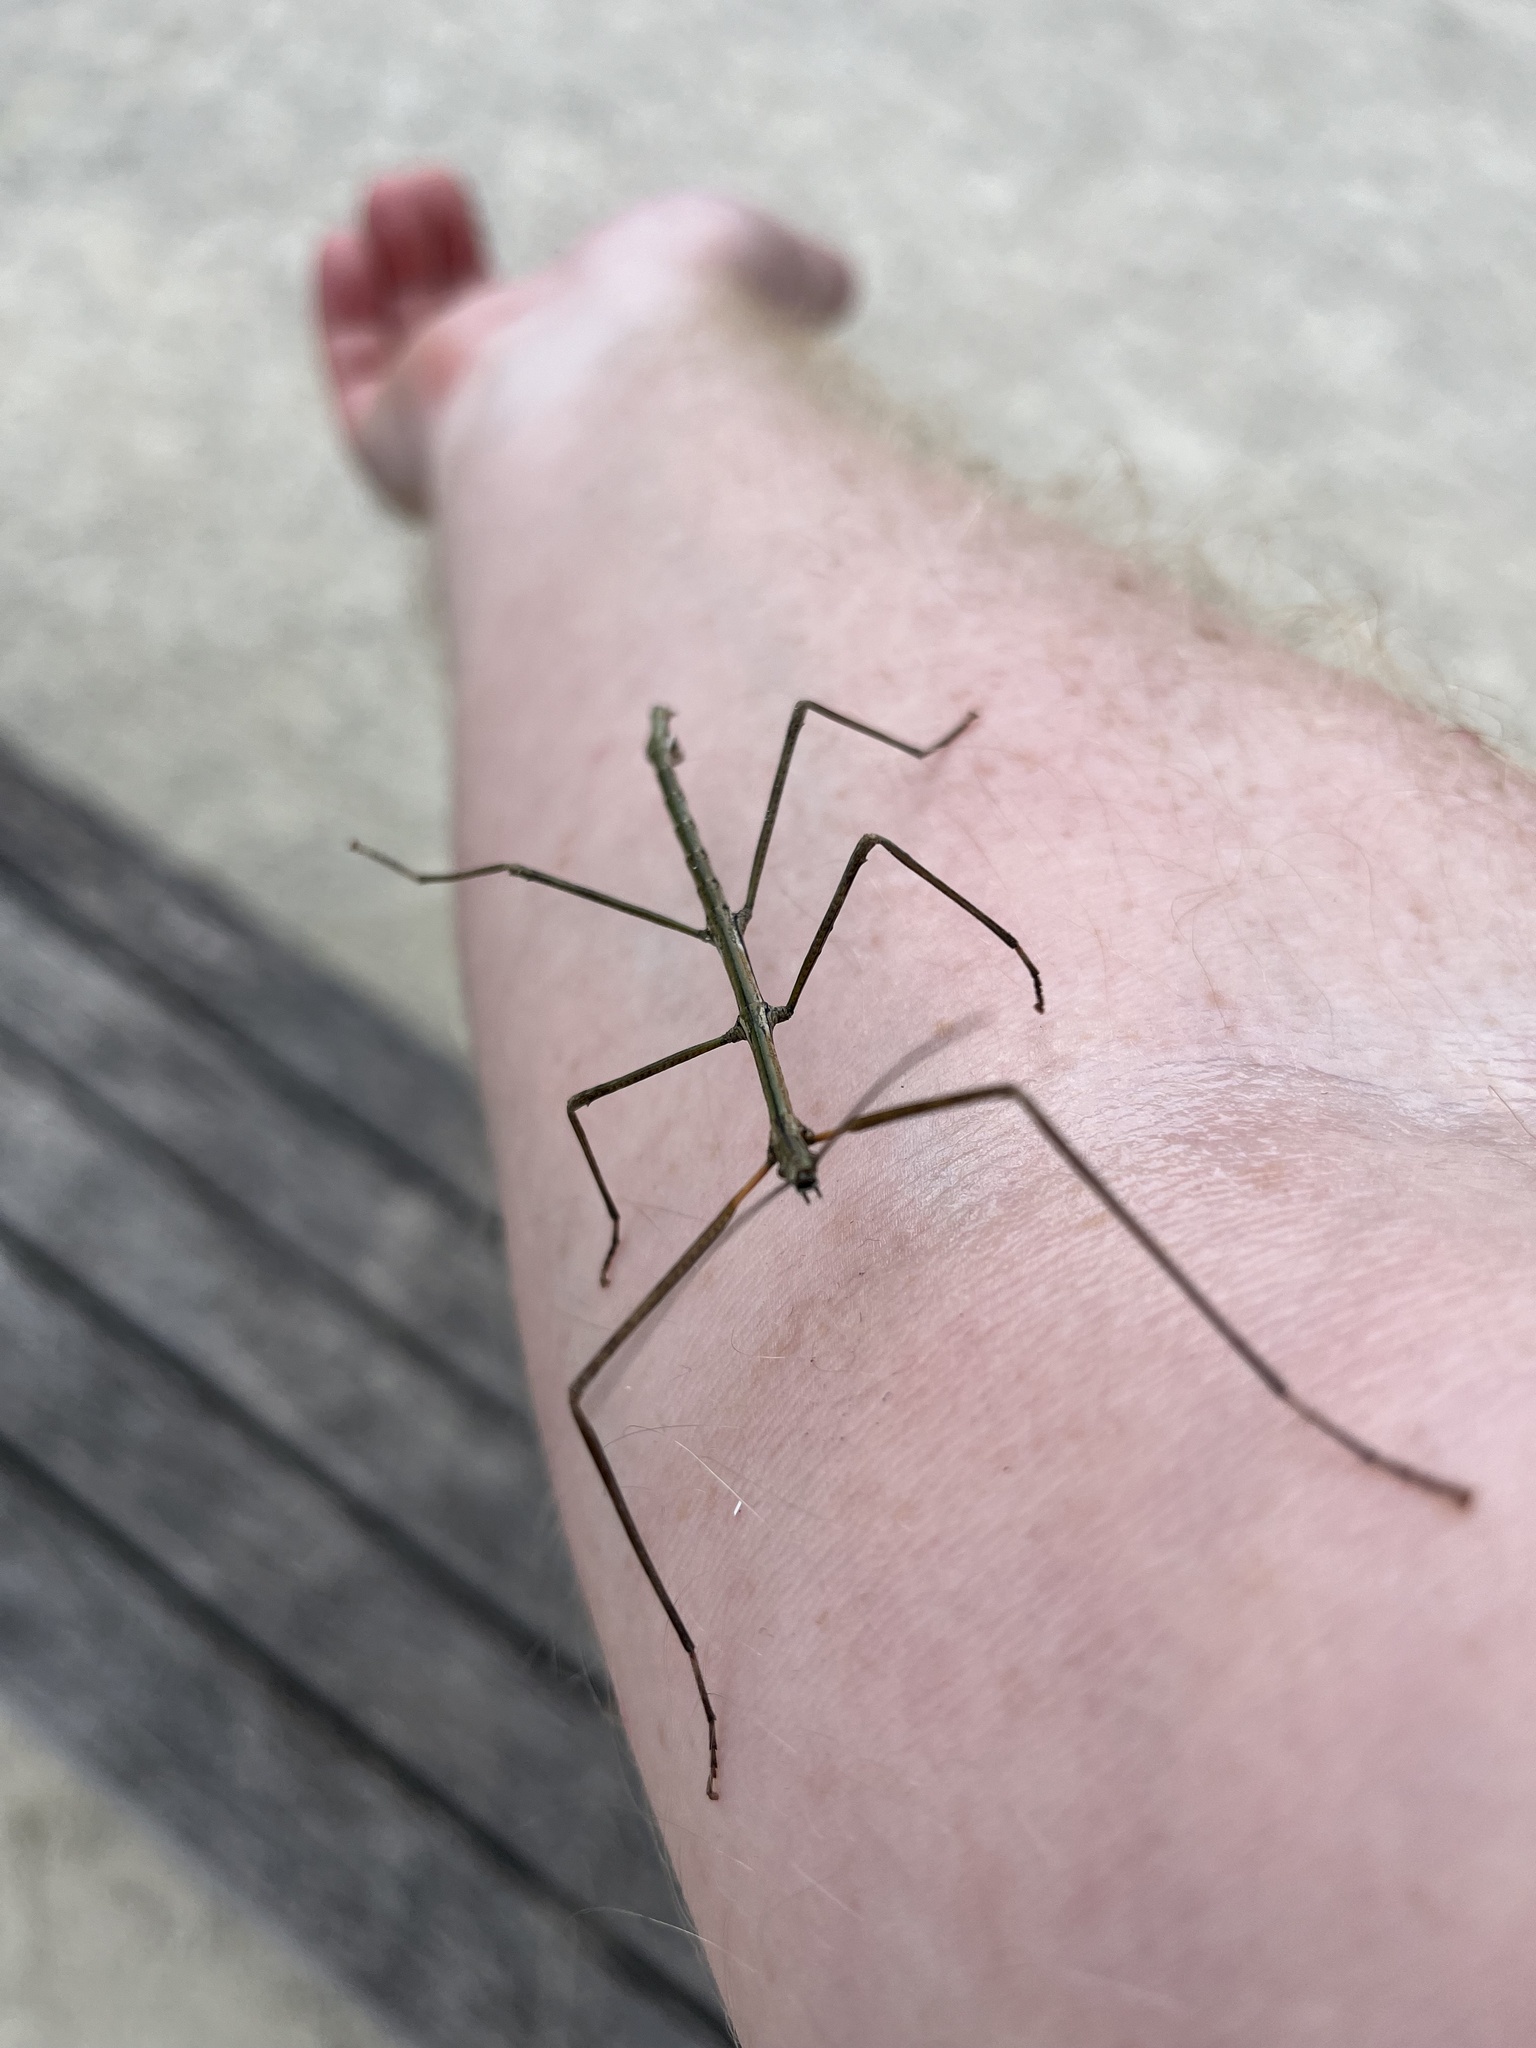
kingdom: Animalia
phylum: Arthropoda
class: Insecta
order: Phasmida
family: Phasmatidae
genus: Clitarchus
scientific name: Clitarchus hookeri
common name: Smooth stick insect
